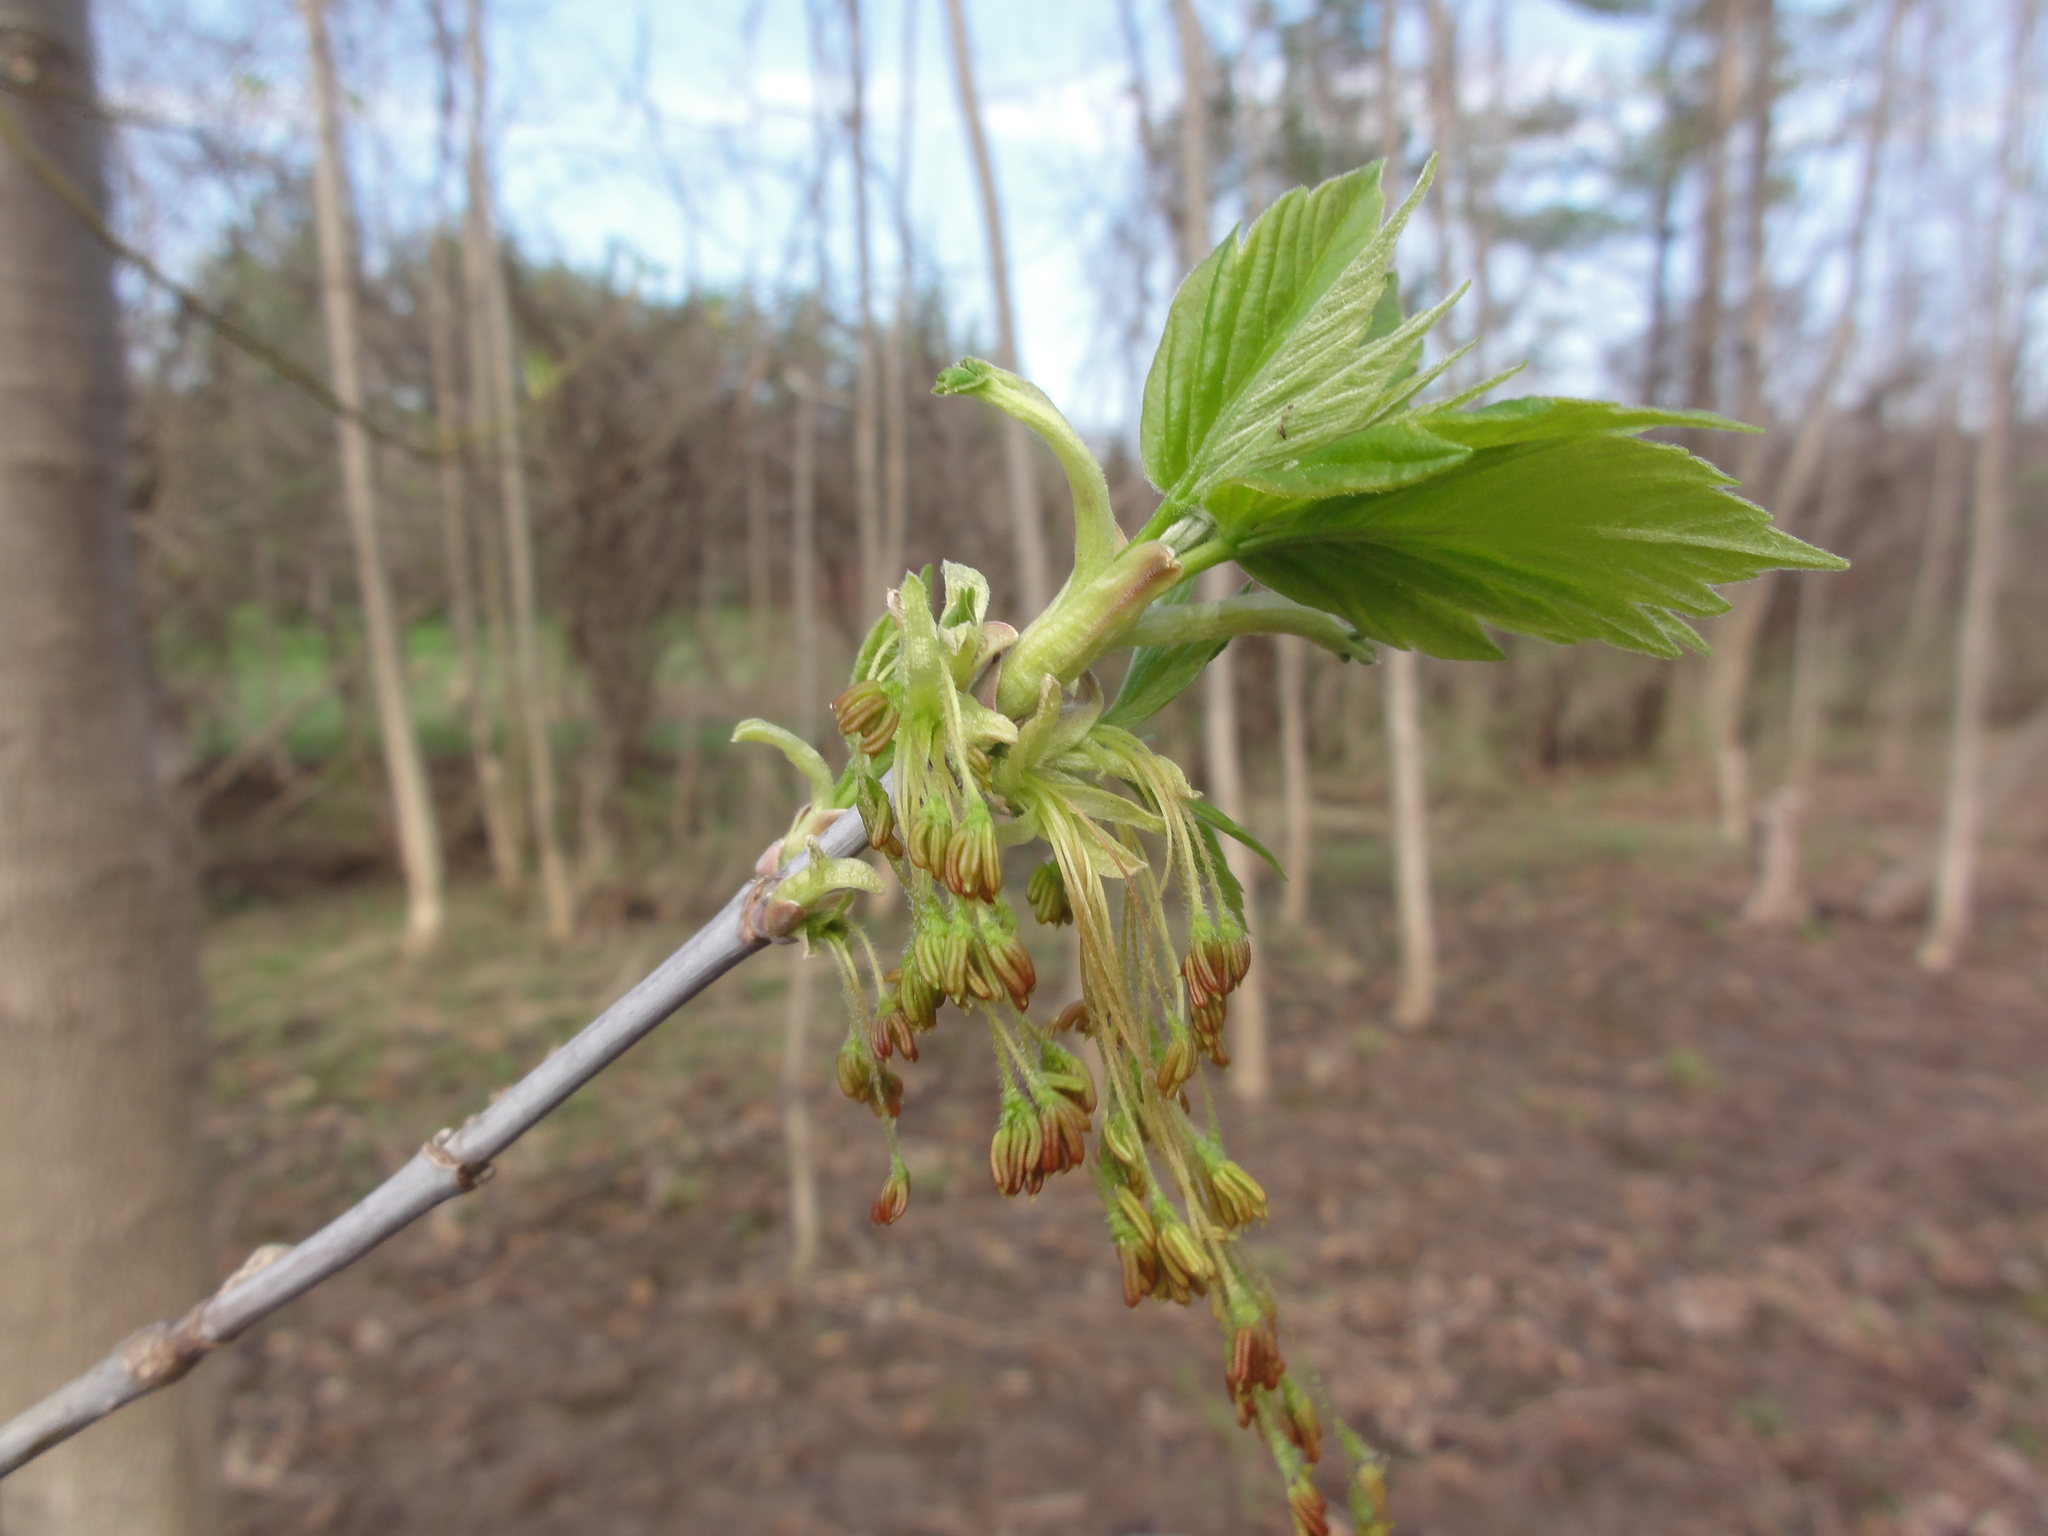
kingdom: Plantae
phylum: Tracheophyta
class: Magnoliopsida
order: Sapindales
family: Sapindaceae
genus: Acer
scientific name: Acer negundo
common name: Ashleaf maple
